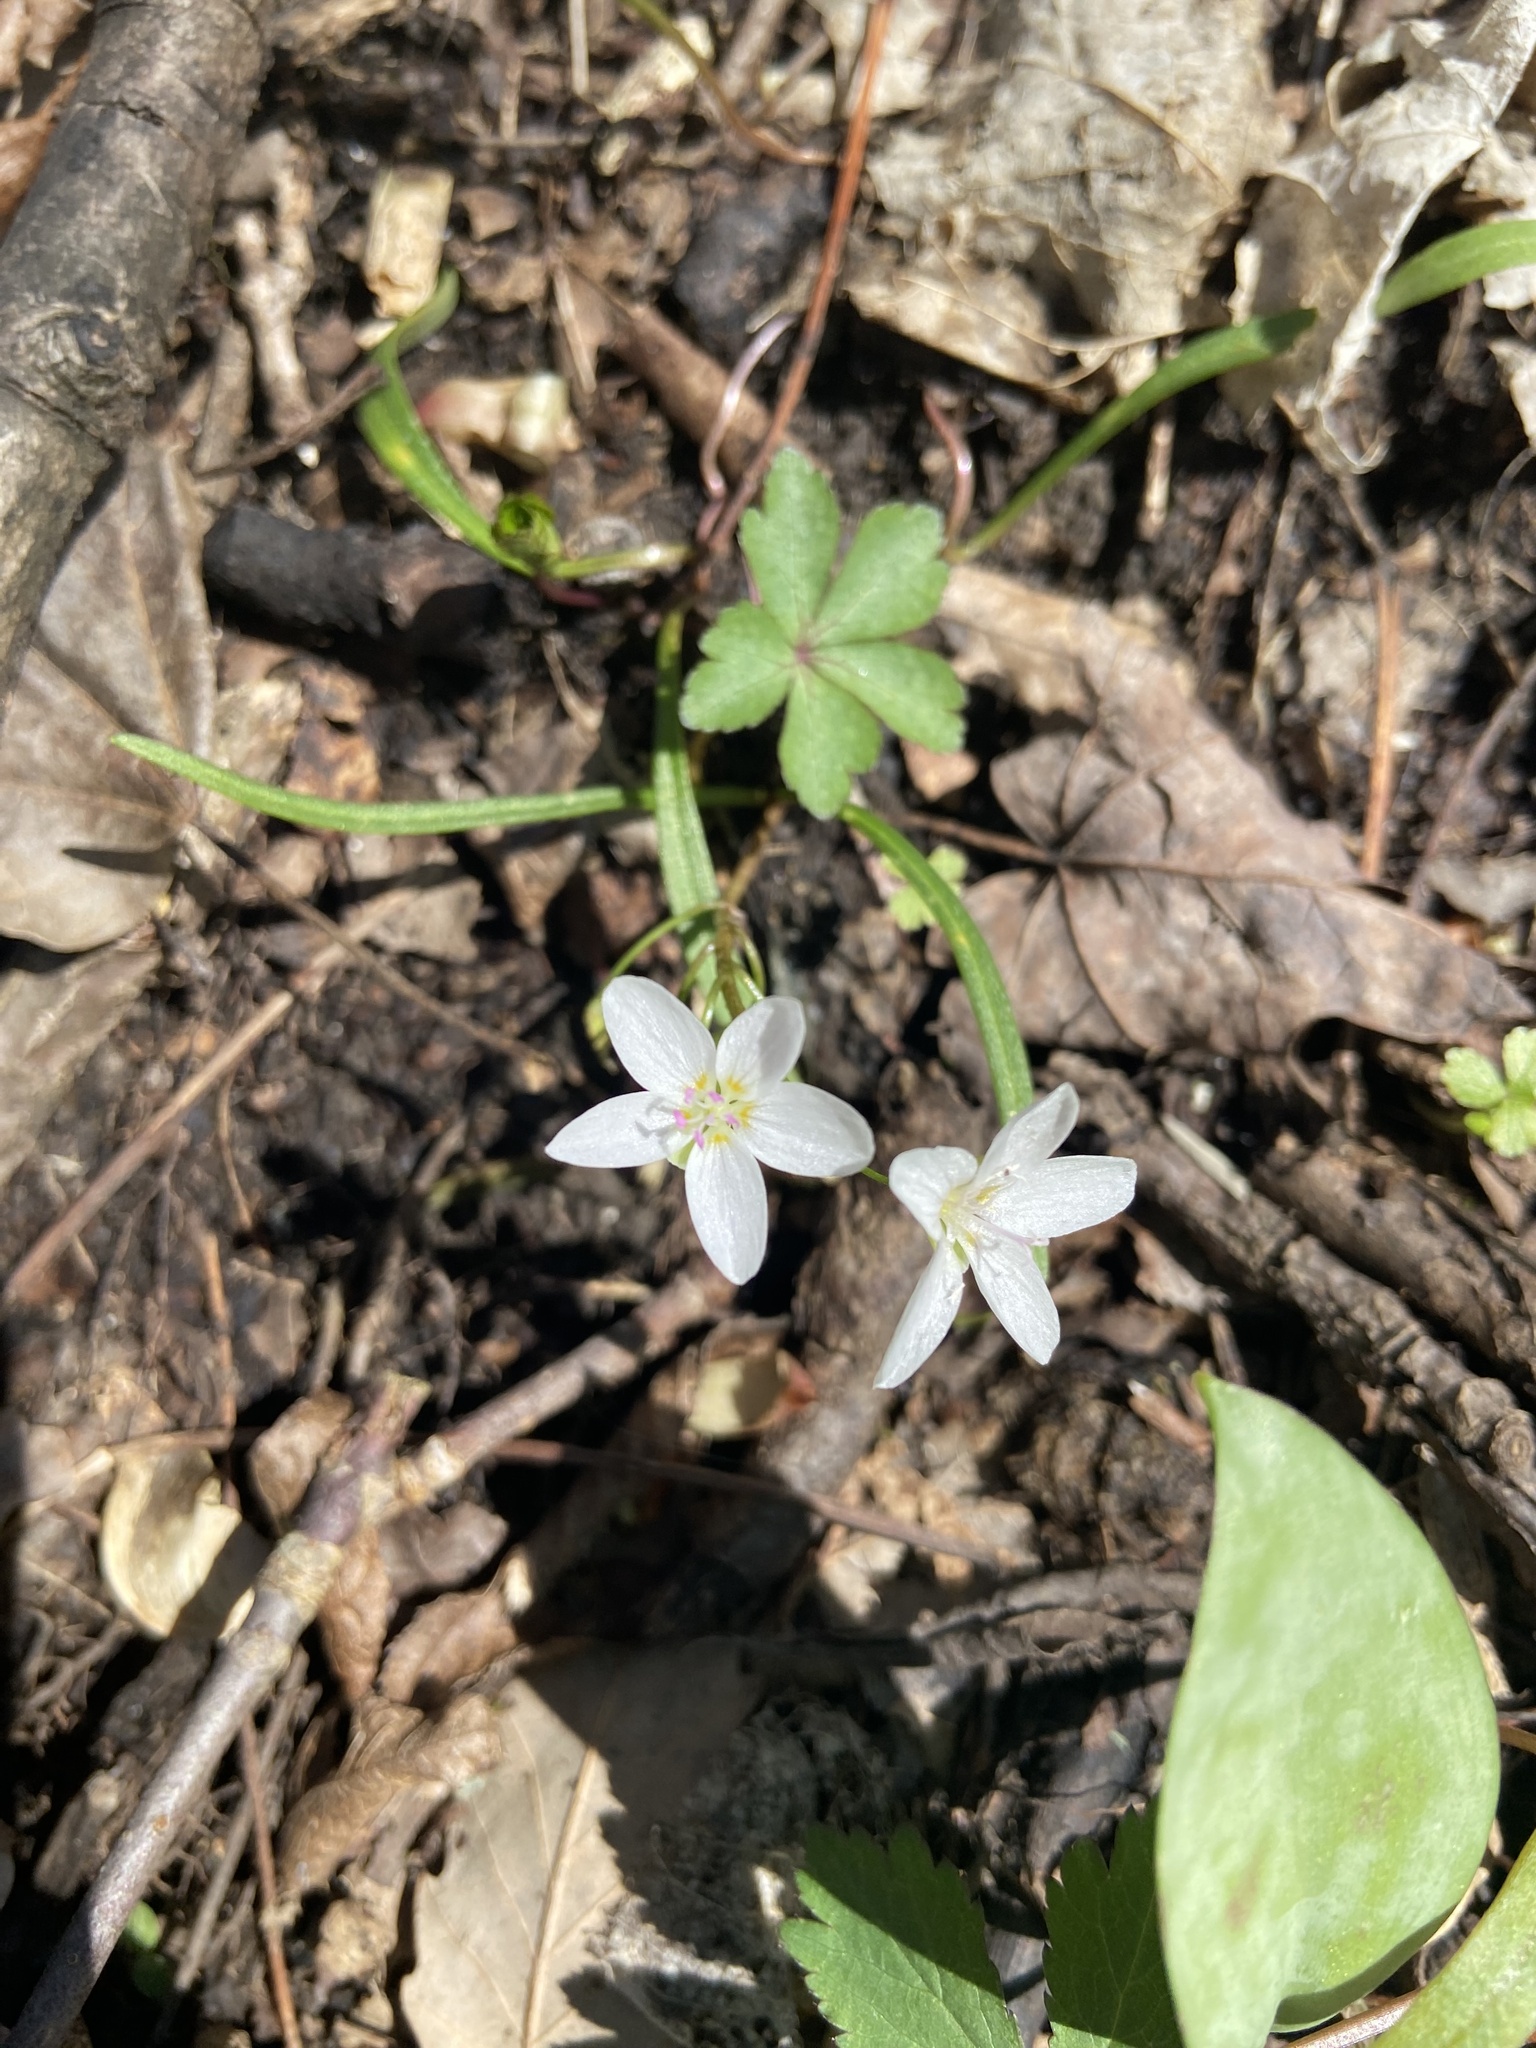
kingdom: Plantae
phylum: Tracheophyta
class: Magnoliopsida
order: Caryophyllales
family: Montiaceae
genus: Claytonia
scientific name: Claytonia virginica
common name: Virginia springbeauty
